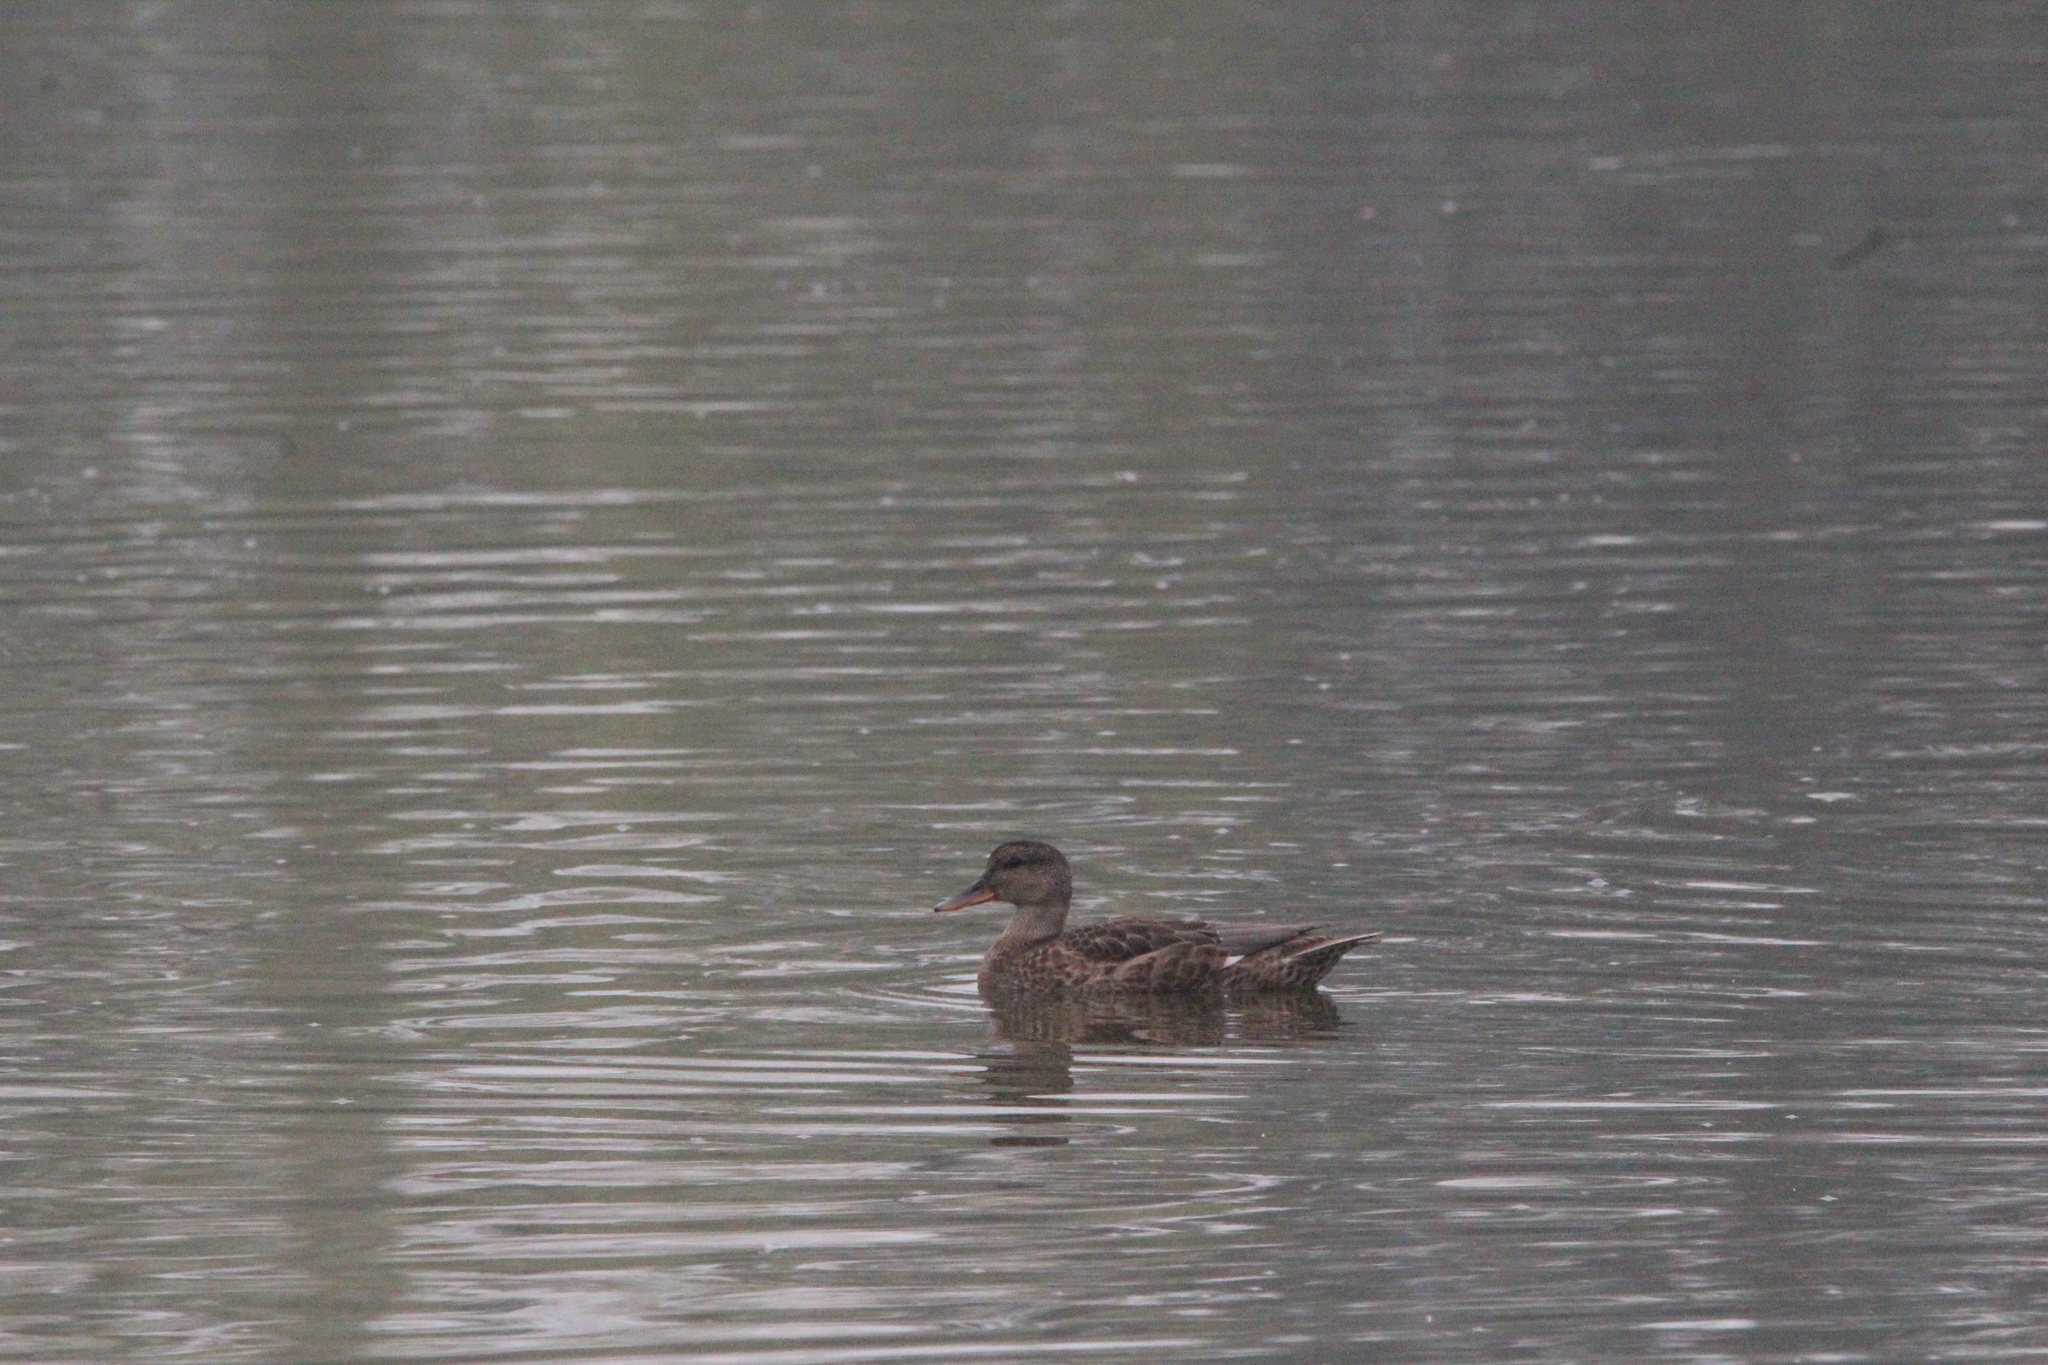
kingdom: Animalia
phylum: Chordata
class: Aves
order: Anseriformes
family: Anatidae
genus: Mareca
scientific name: Mareca strepera
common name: Gadwall
